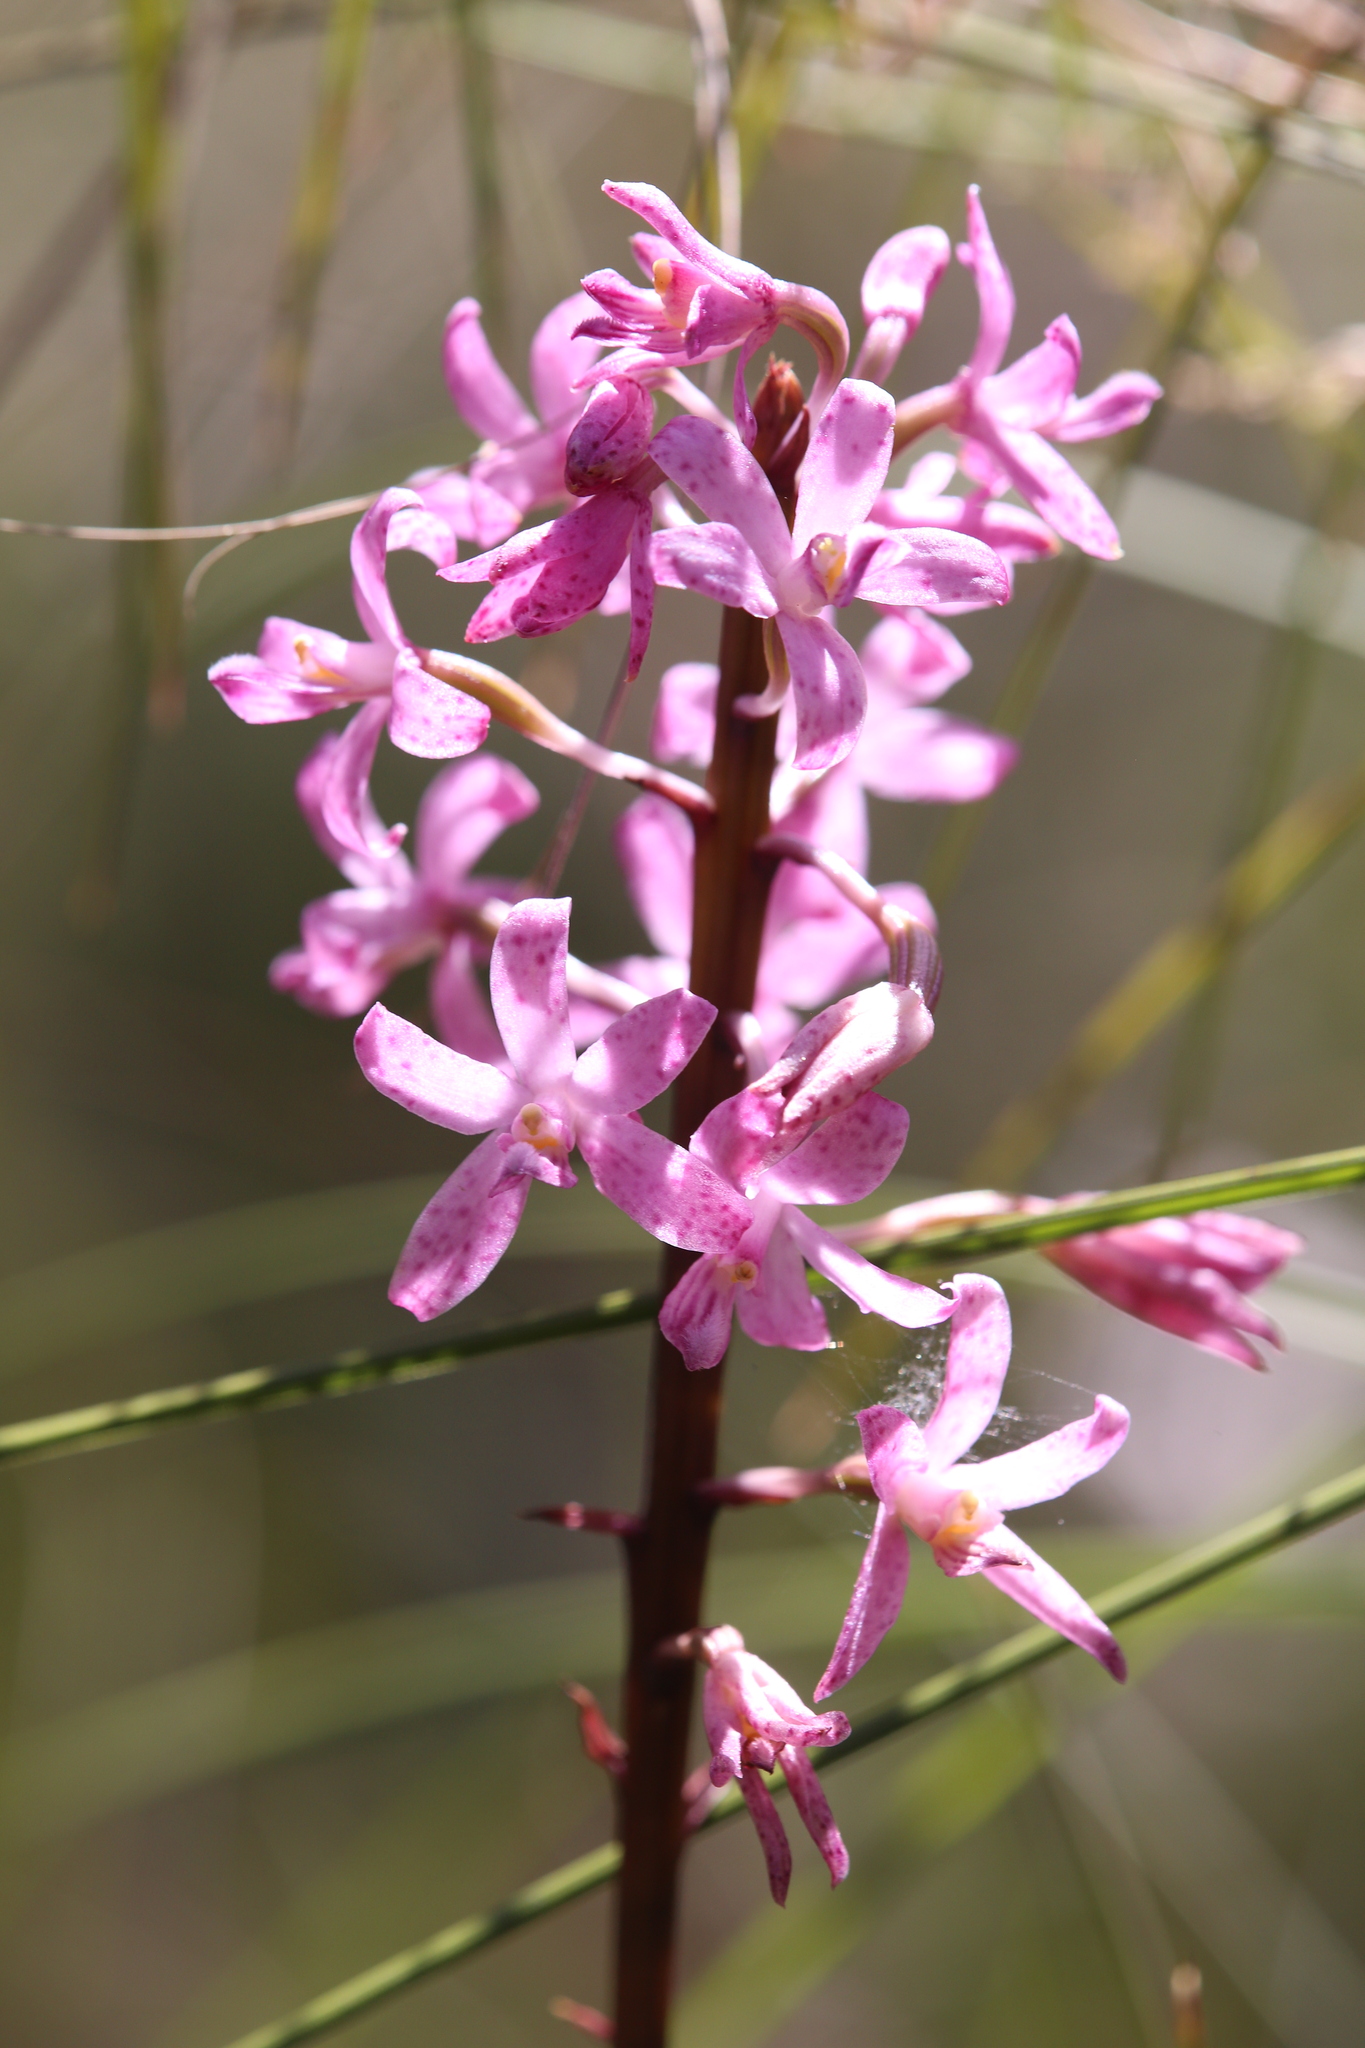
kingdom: Plantae
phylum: Tracheophyta
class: Liliopsida
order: Asparagales
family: Orchidaceae
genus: Dipodium
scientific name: Dipodium roseum
